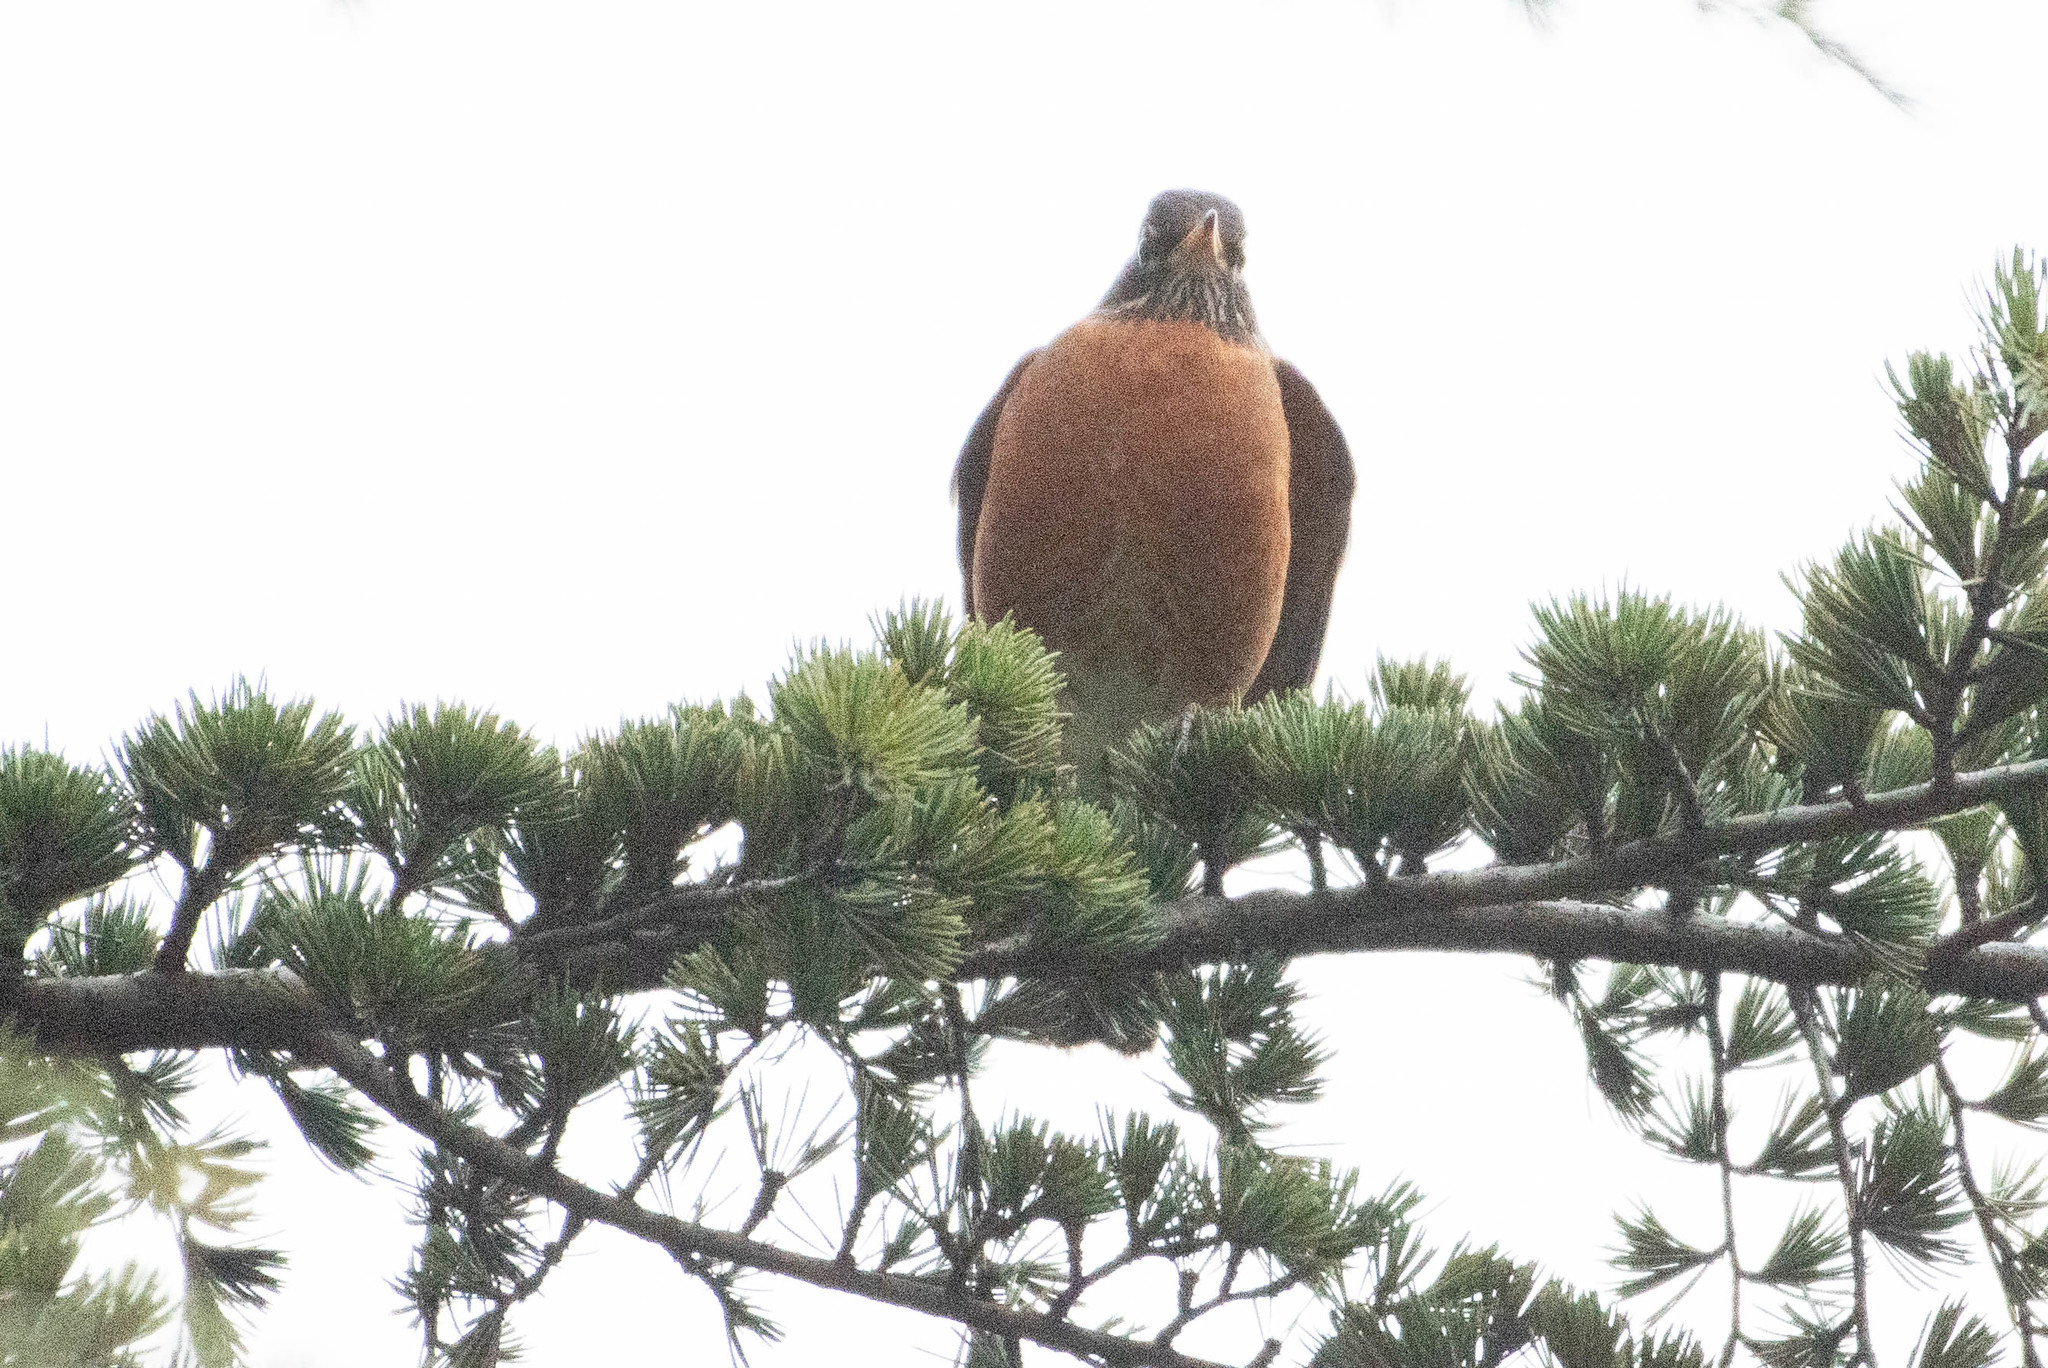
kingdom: Animalia
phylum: Chordata
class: Aves
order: Passeriformes
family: Turdidae
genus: Turdus
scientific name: Turdus migratorius
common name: American robin
